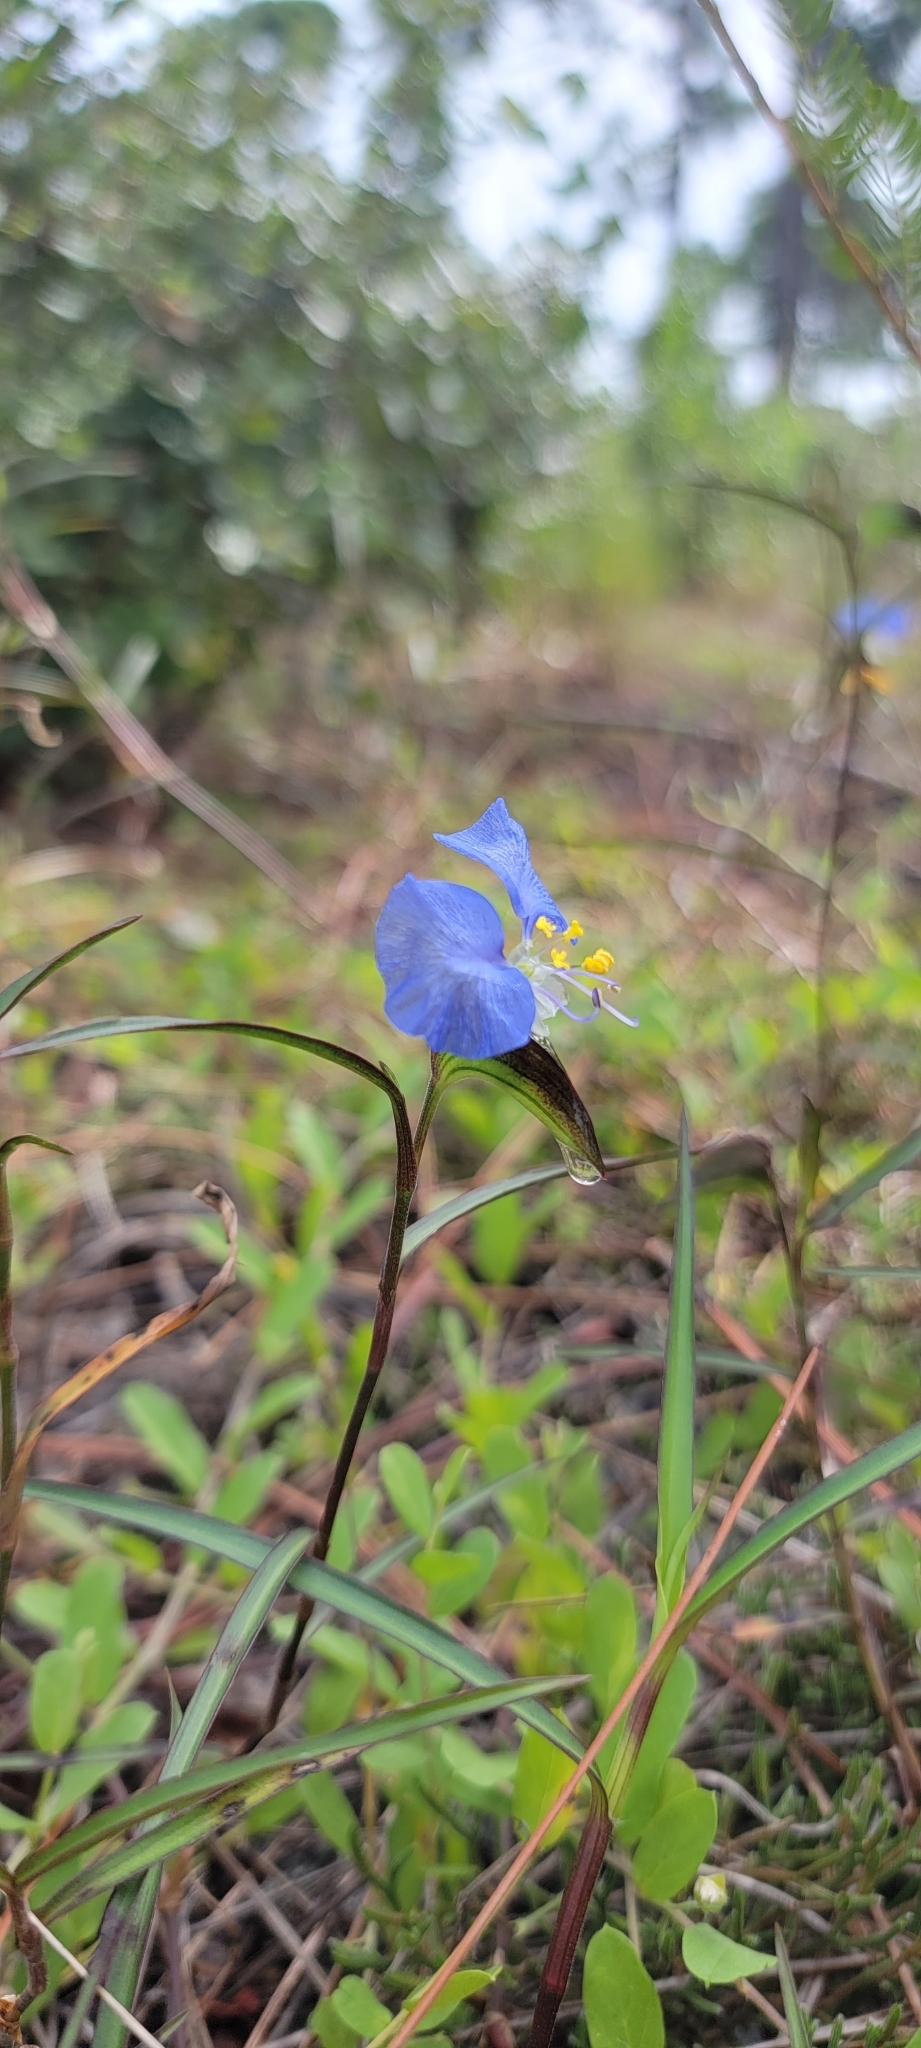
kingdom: Plantae
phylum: Tracheophyta
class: Liliopsida
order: Commelinales
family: Commelinaceae
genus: Commelina
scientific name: Commelina erecta
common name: Blousel blommetjie
